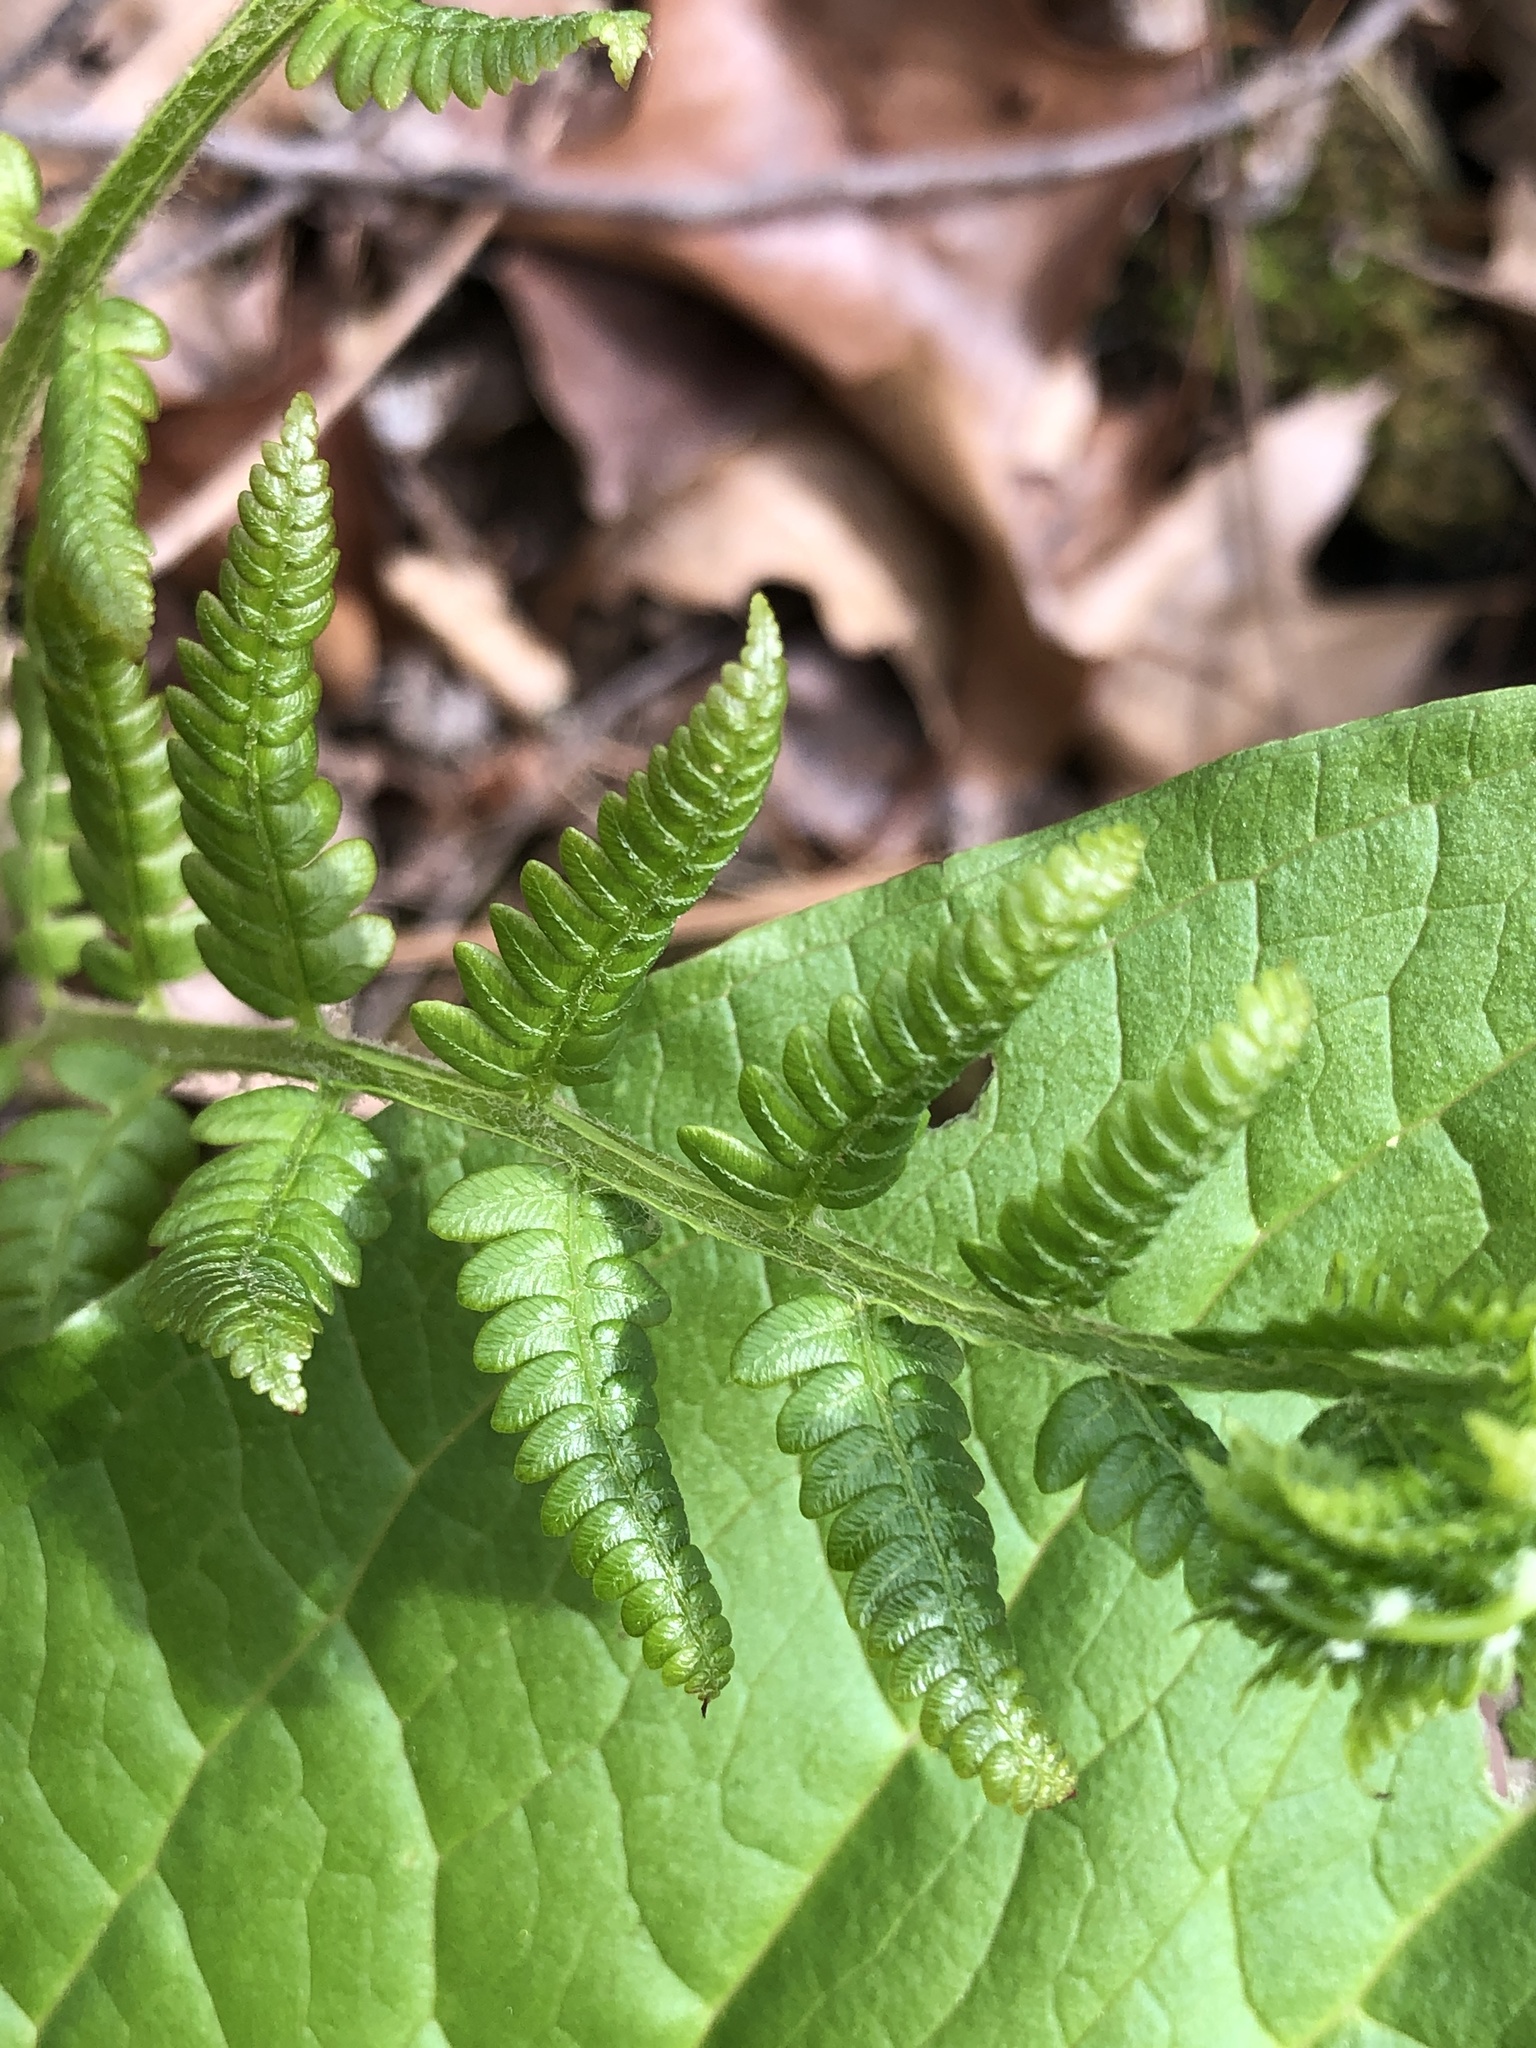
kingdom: Plantae
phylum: Tracheophyta
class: Polypodiopsida
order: Osmundales
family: Osmundaceae
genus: Osmundastrum
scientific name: Osmundastrum cinnamomeum
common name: Cinnamon fern
